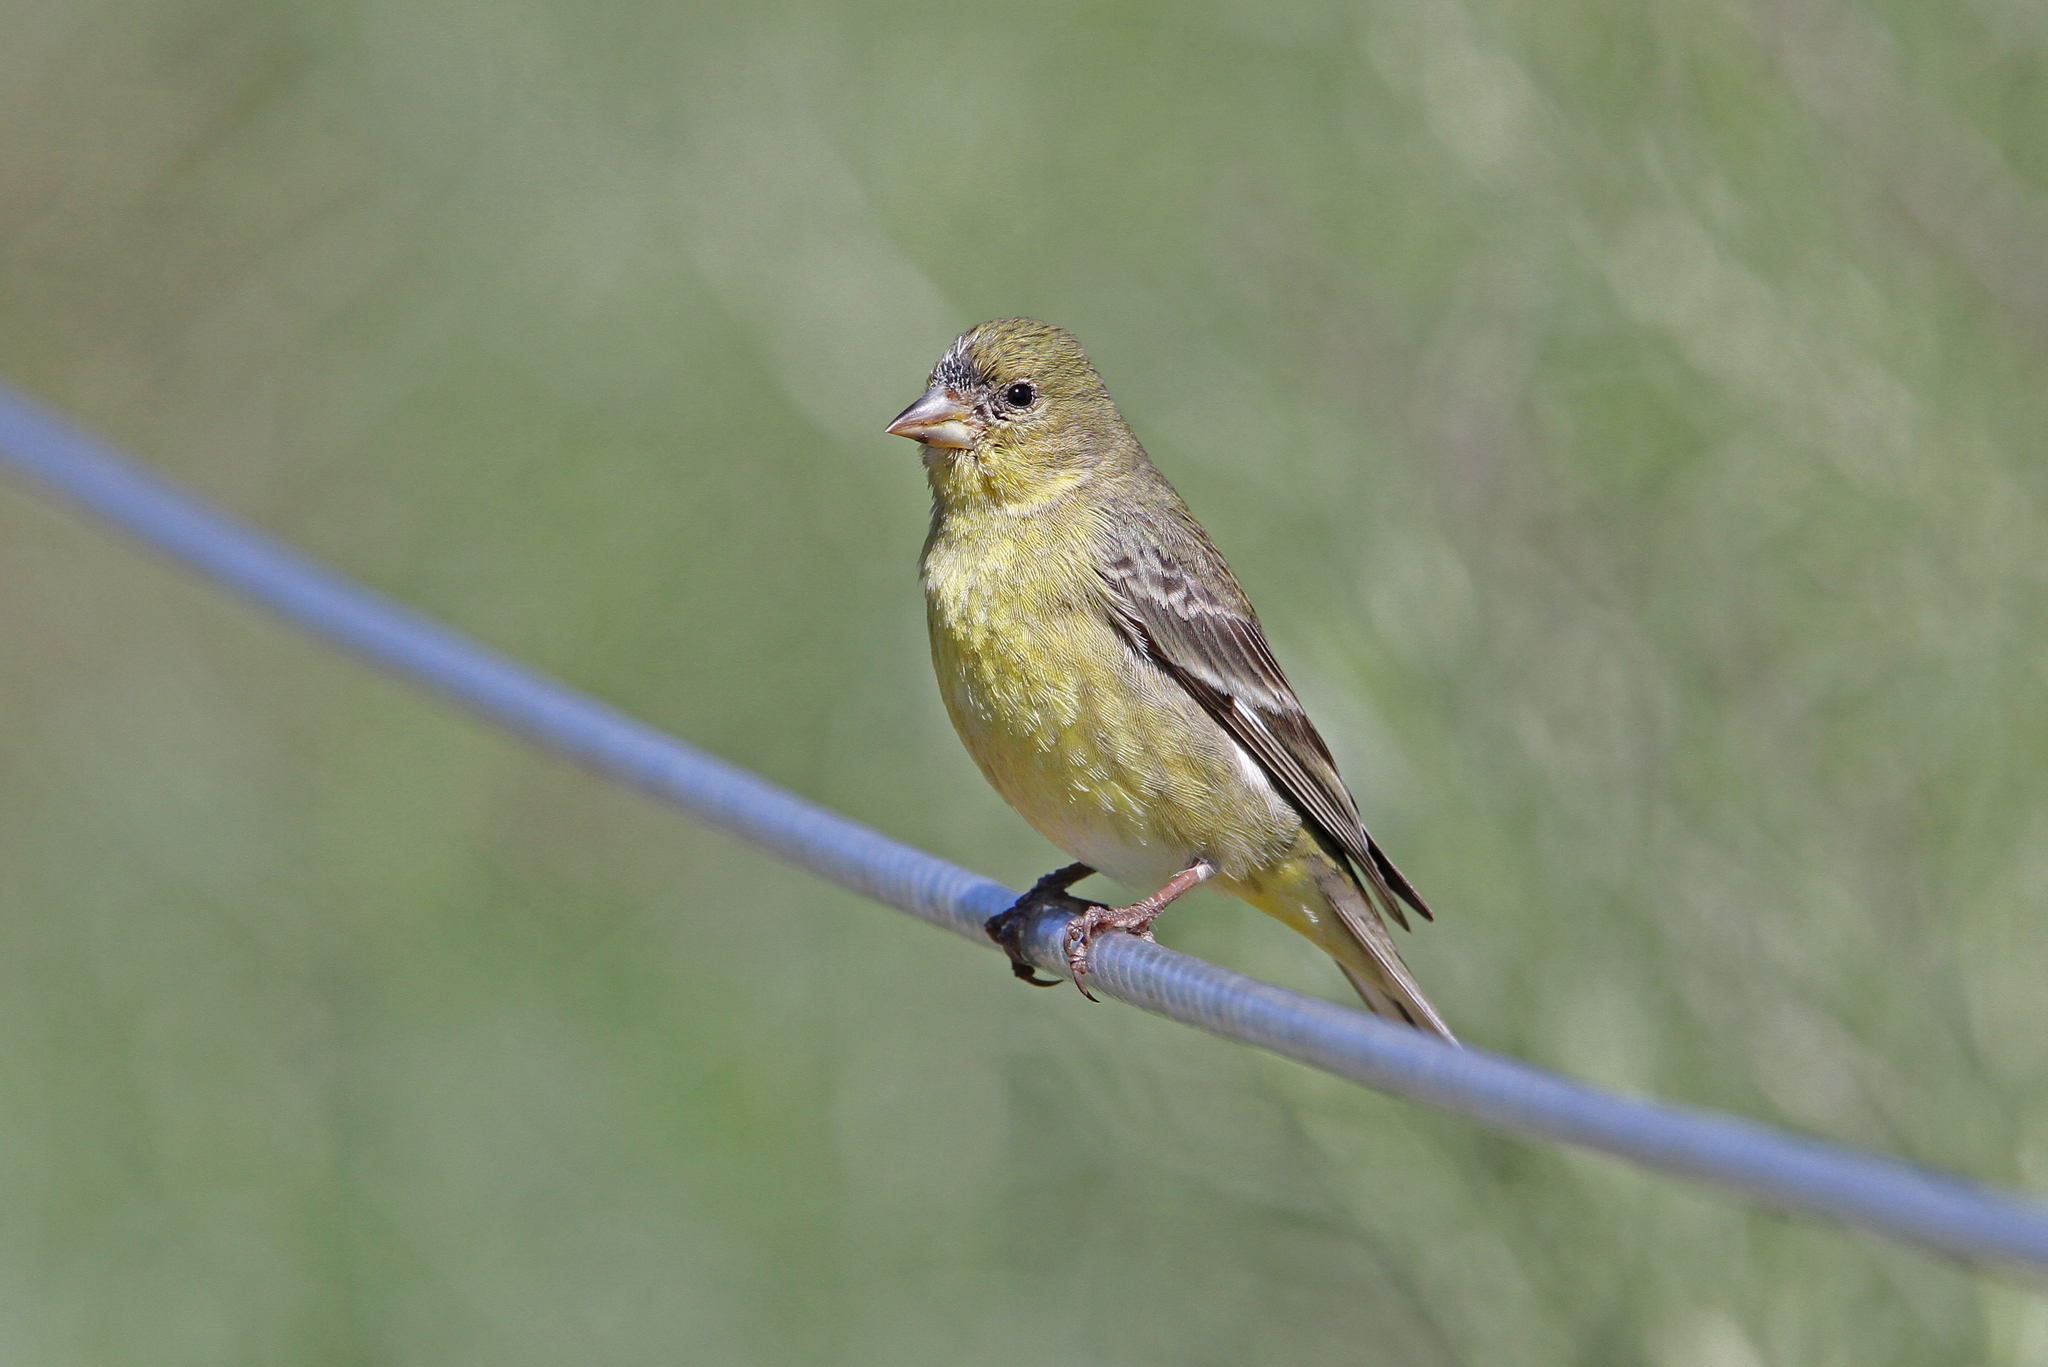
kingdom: Animalia
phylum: Chordata
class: Aves
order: Passeriformes
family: Fringillidae
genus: Spinus
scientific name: Spinus psaltria
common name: Lesser goldfinch
